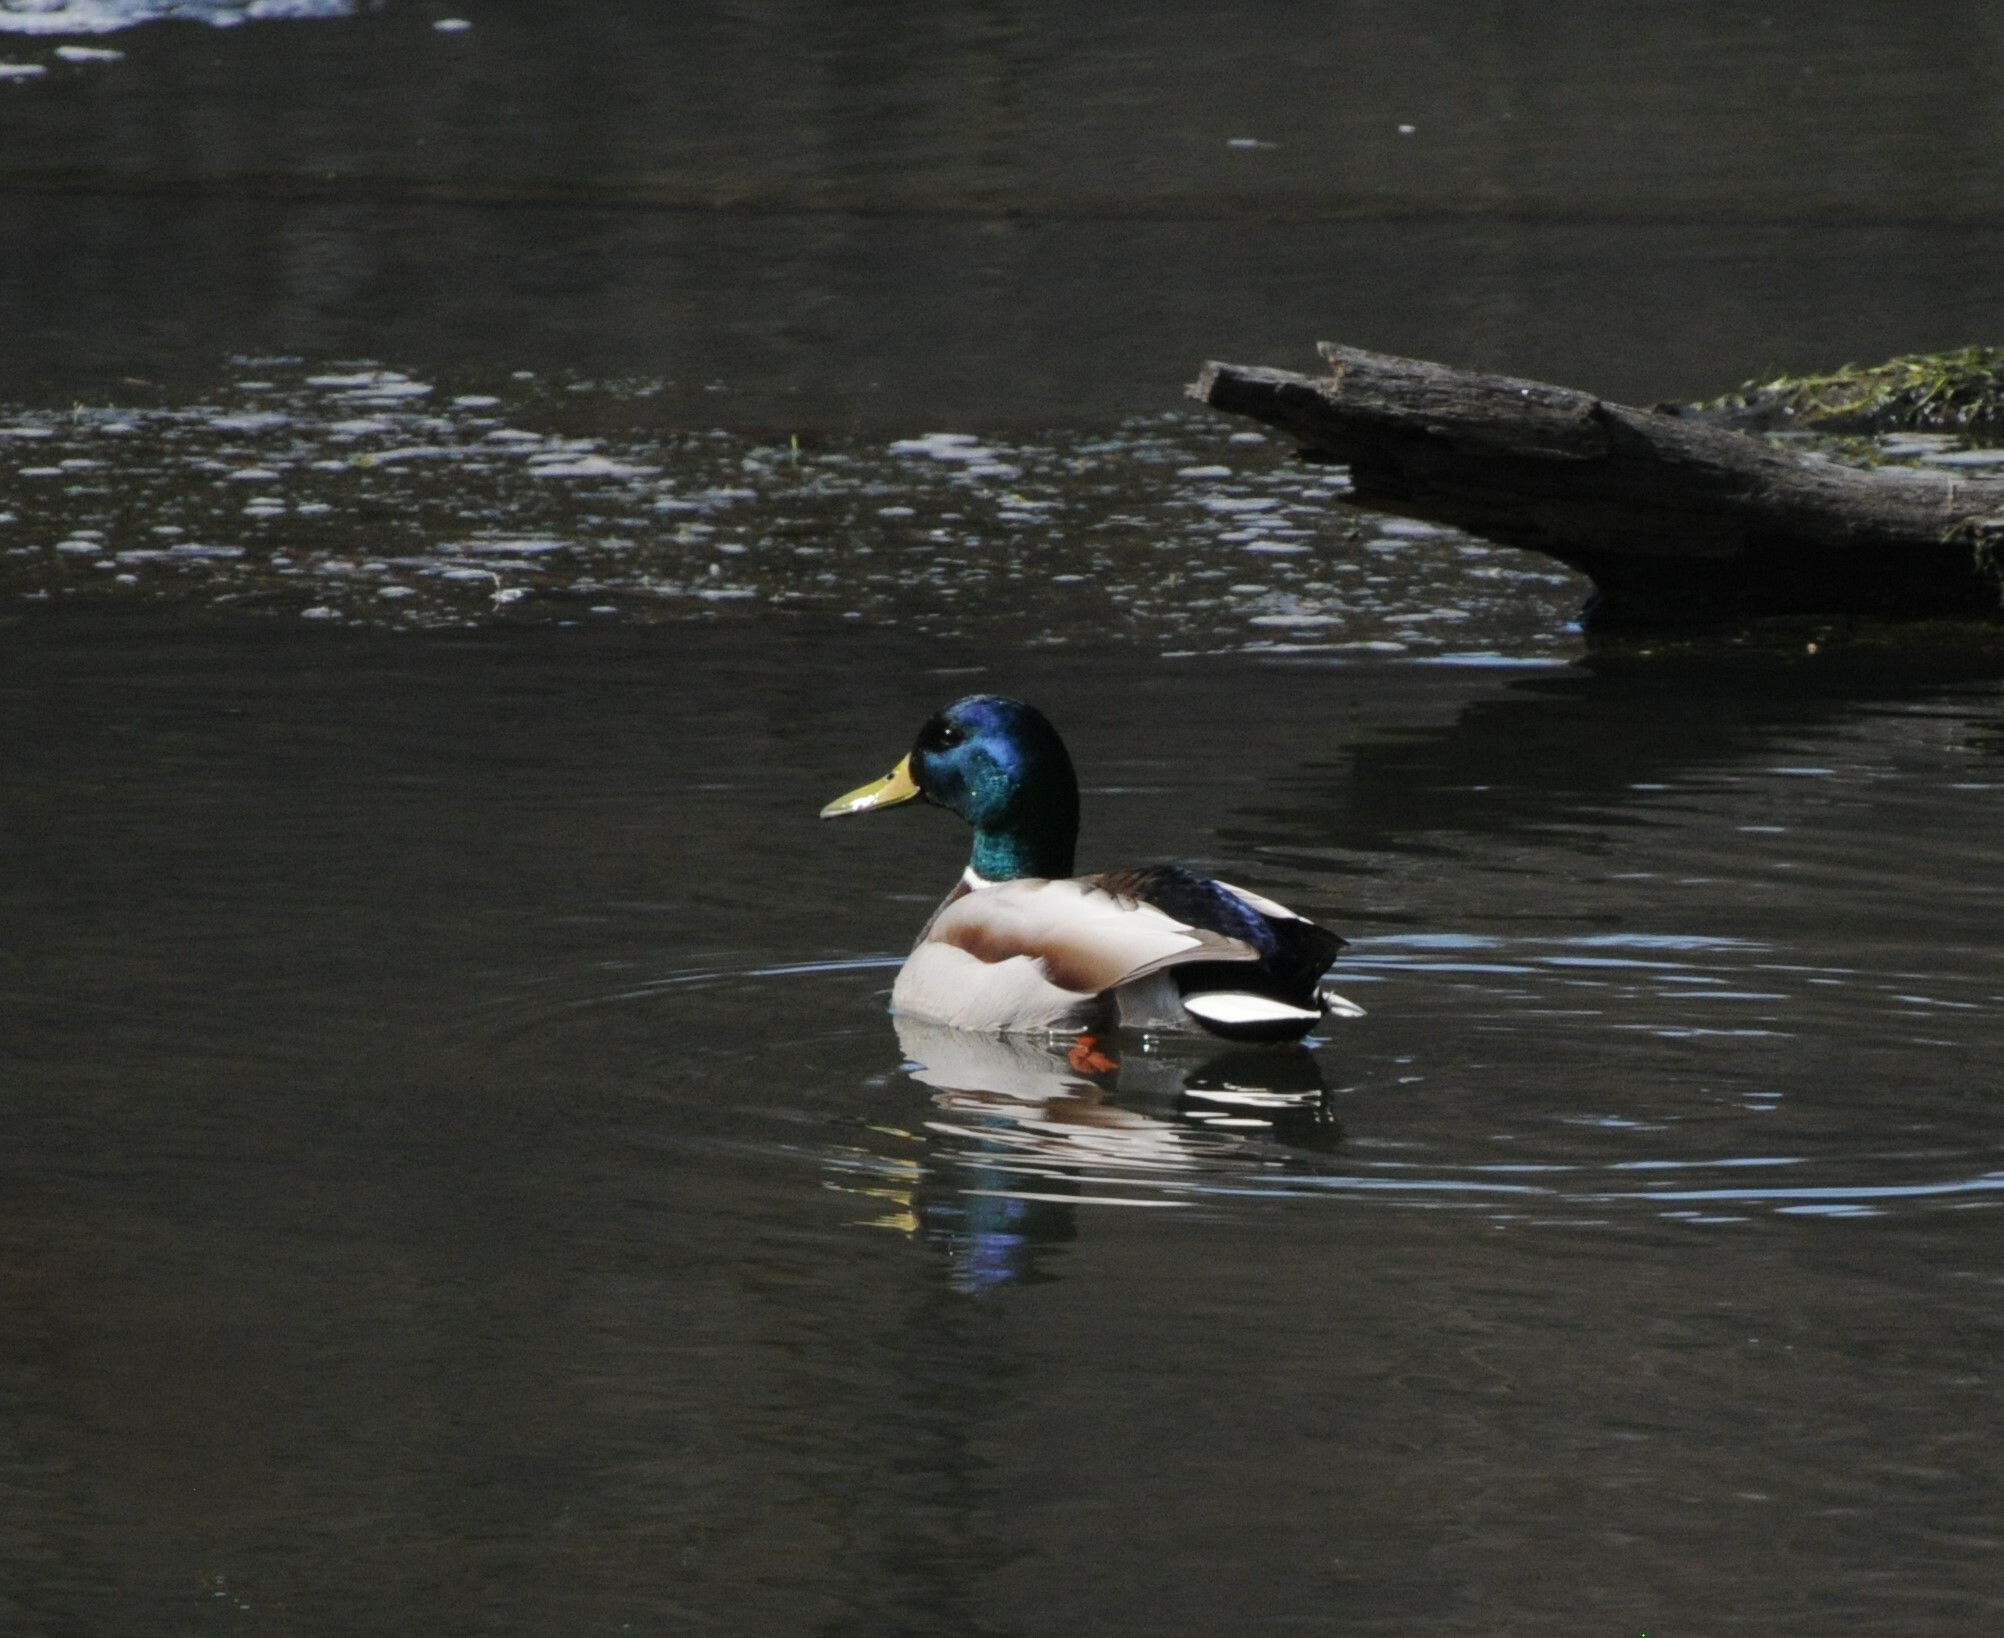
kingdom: Animalia
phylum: Chordata
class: Aves
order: Anseriformes
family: Anatidae
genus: Anas
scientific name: Anas platyrhynchos
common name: Mallard
